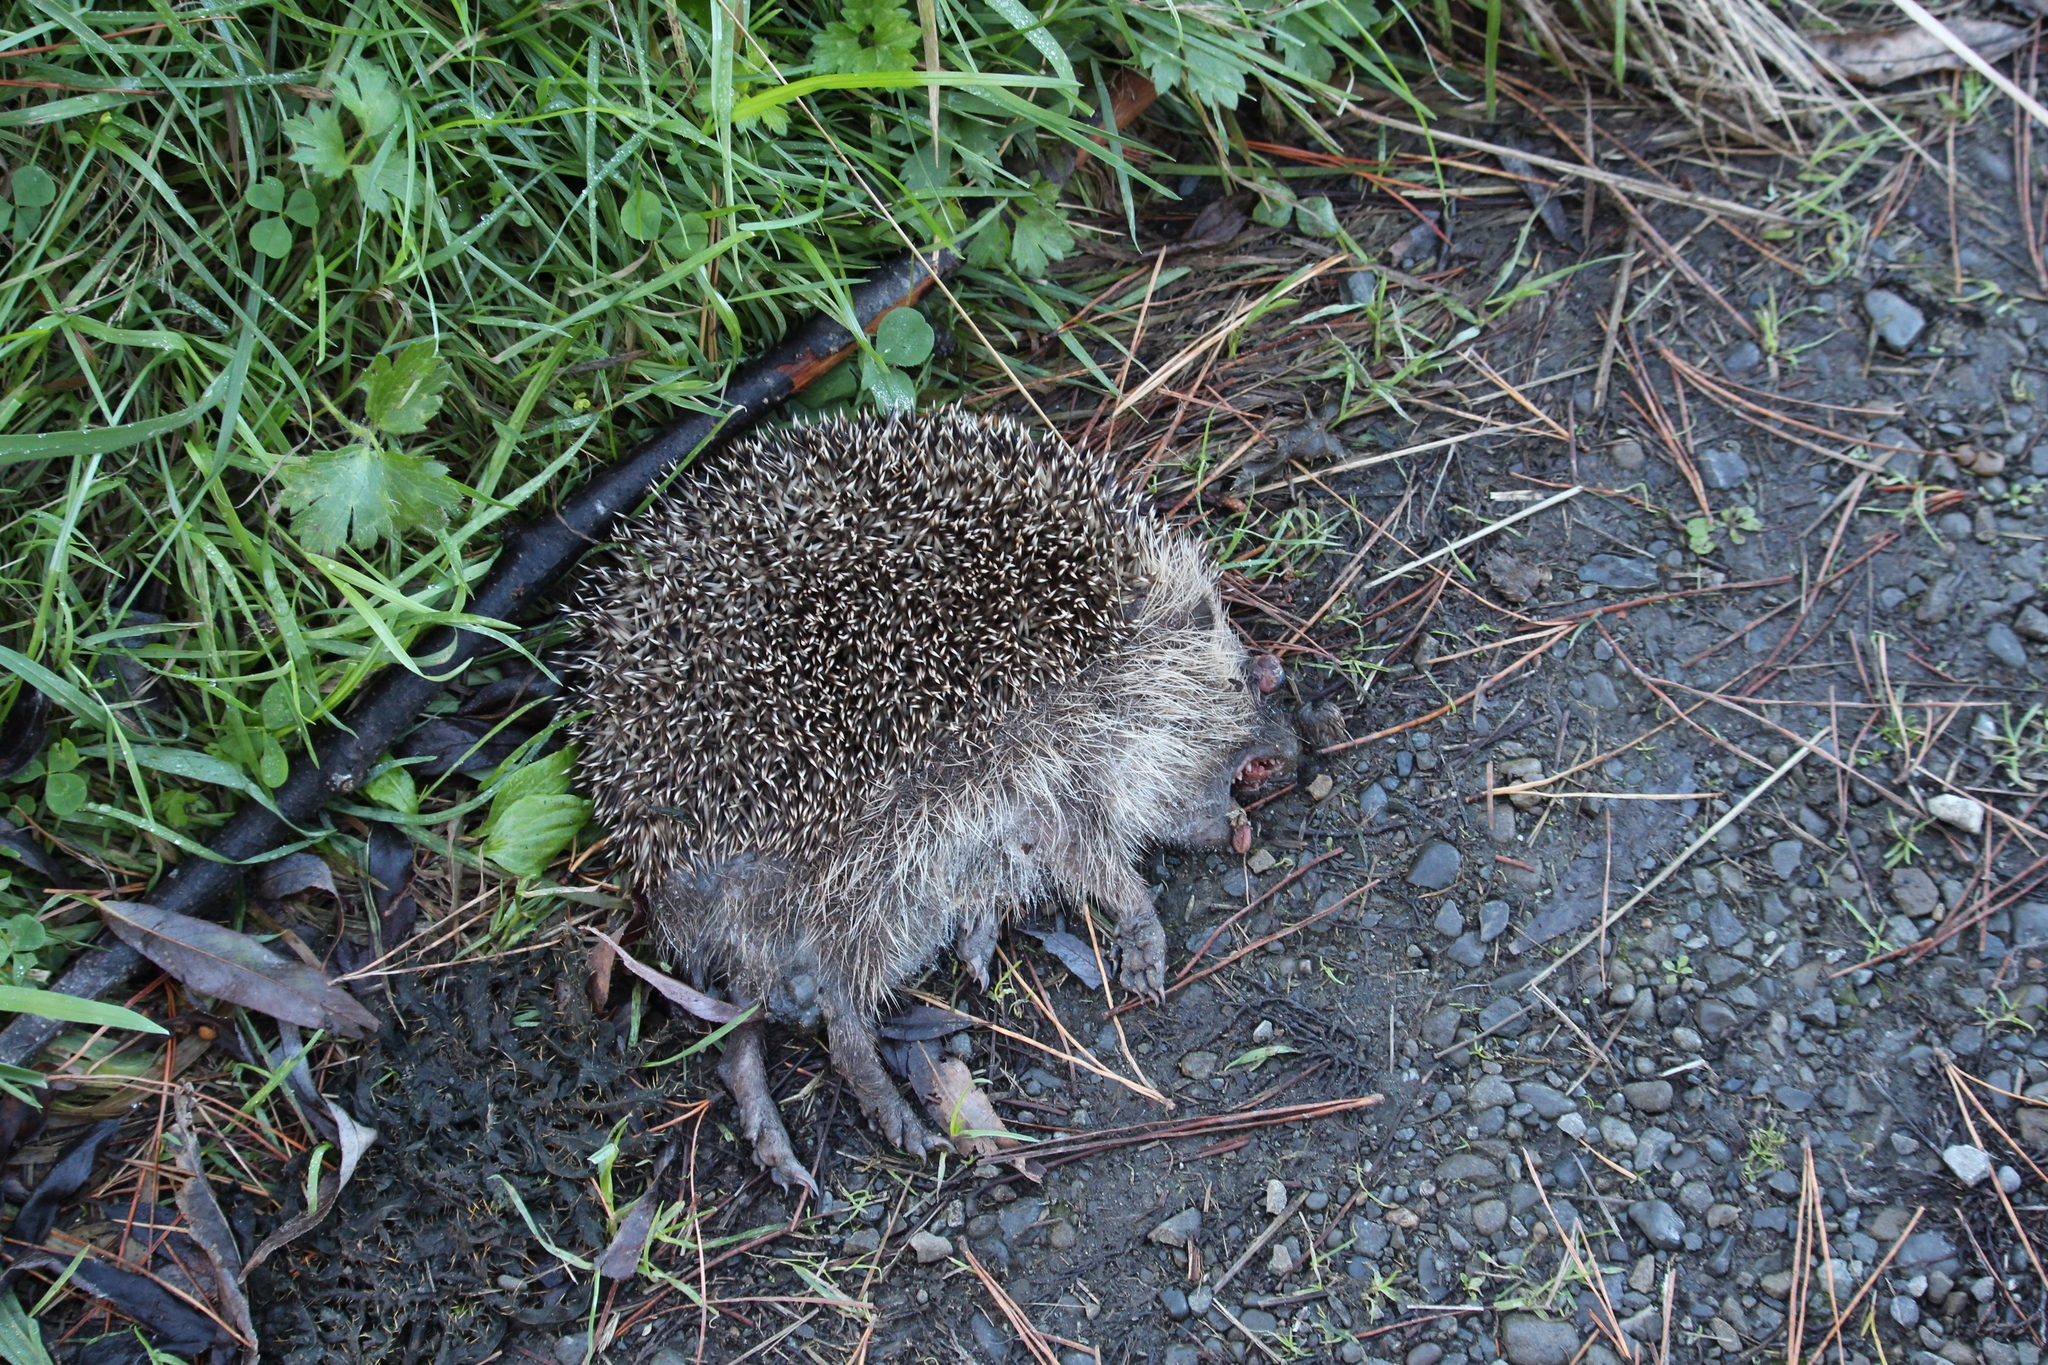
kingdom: Animalia
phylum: Chordata
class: Mammalia
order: Erinaceomorpha
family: Erinaceidae
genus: Erinaceus
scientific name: Erinaceus europaeus
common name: West european hedgehog
